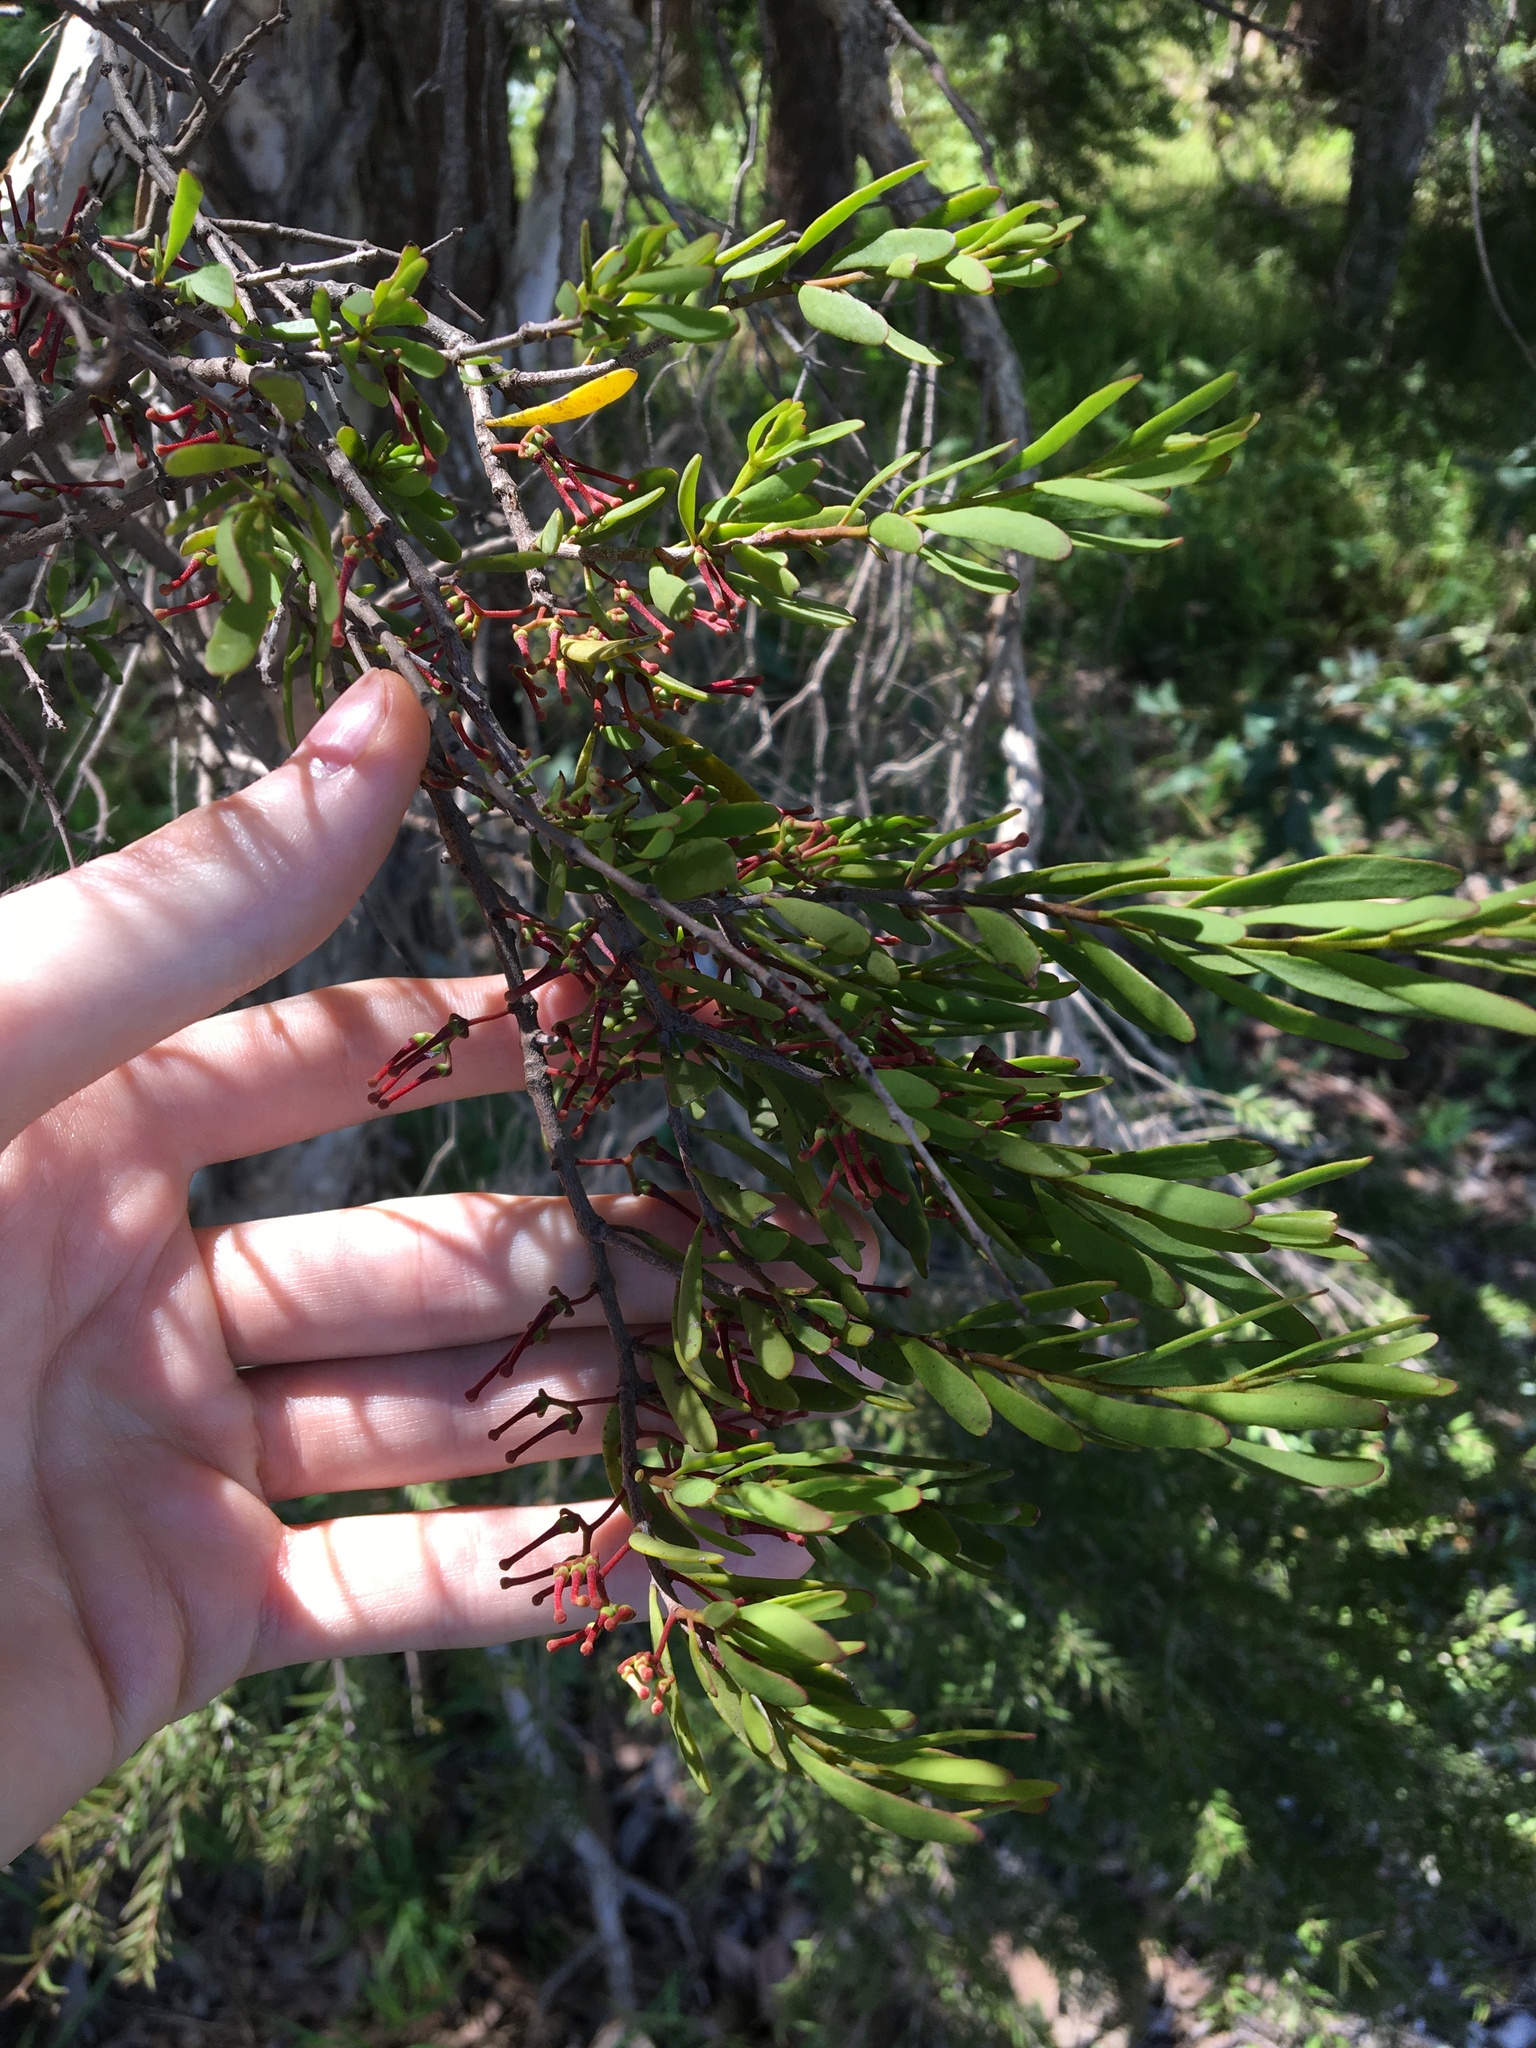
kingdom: Plantae
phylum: Tracheophyta
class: Magnoliopsida
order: Santalales
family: Loranthaceae
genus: Amyema
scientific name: Amyema gaudichaudii
